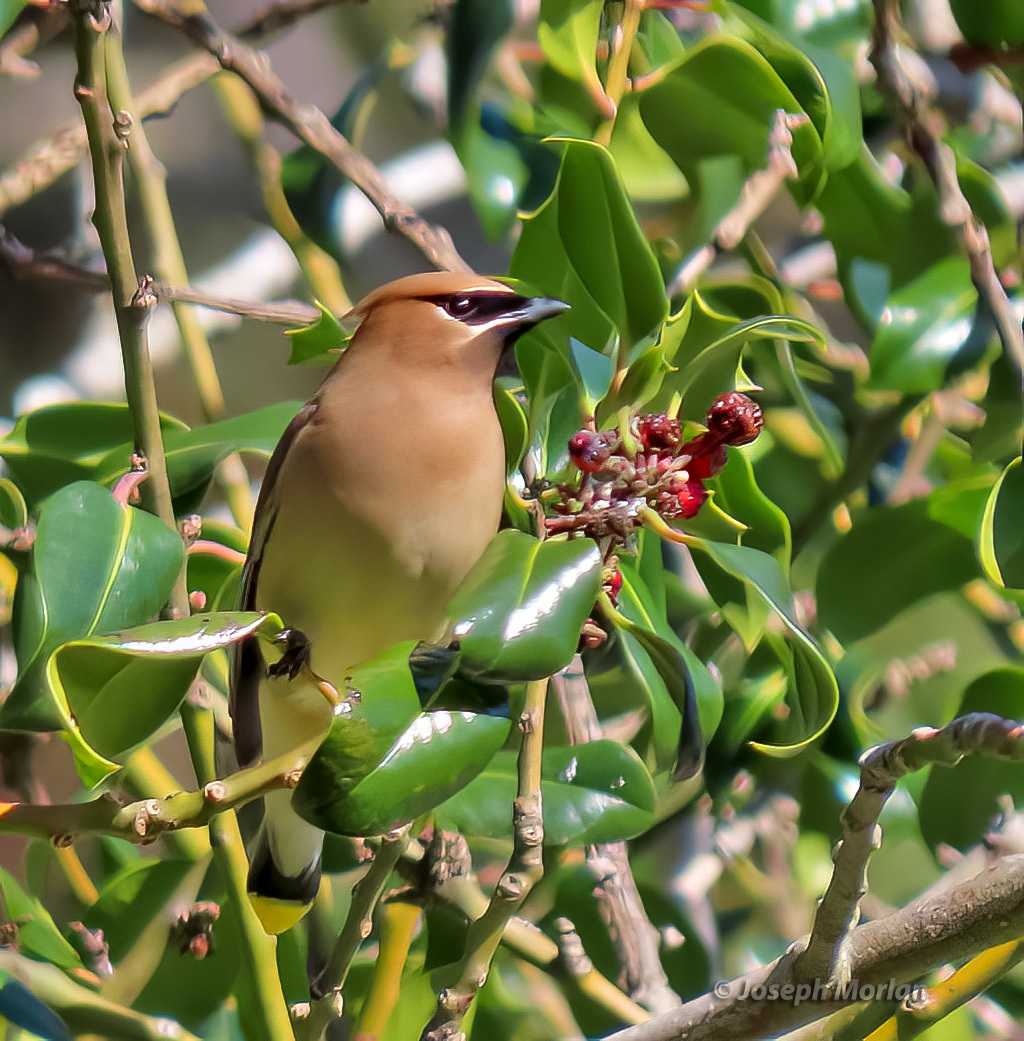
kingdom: Animalia
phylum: Chordata
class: Aves
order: Passeriformes
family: Bombycillidae
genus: Bombycilla
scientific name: Bombycilla cedrorum
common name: Cedar waxwing
